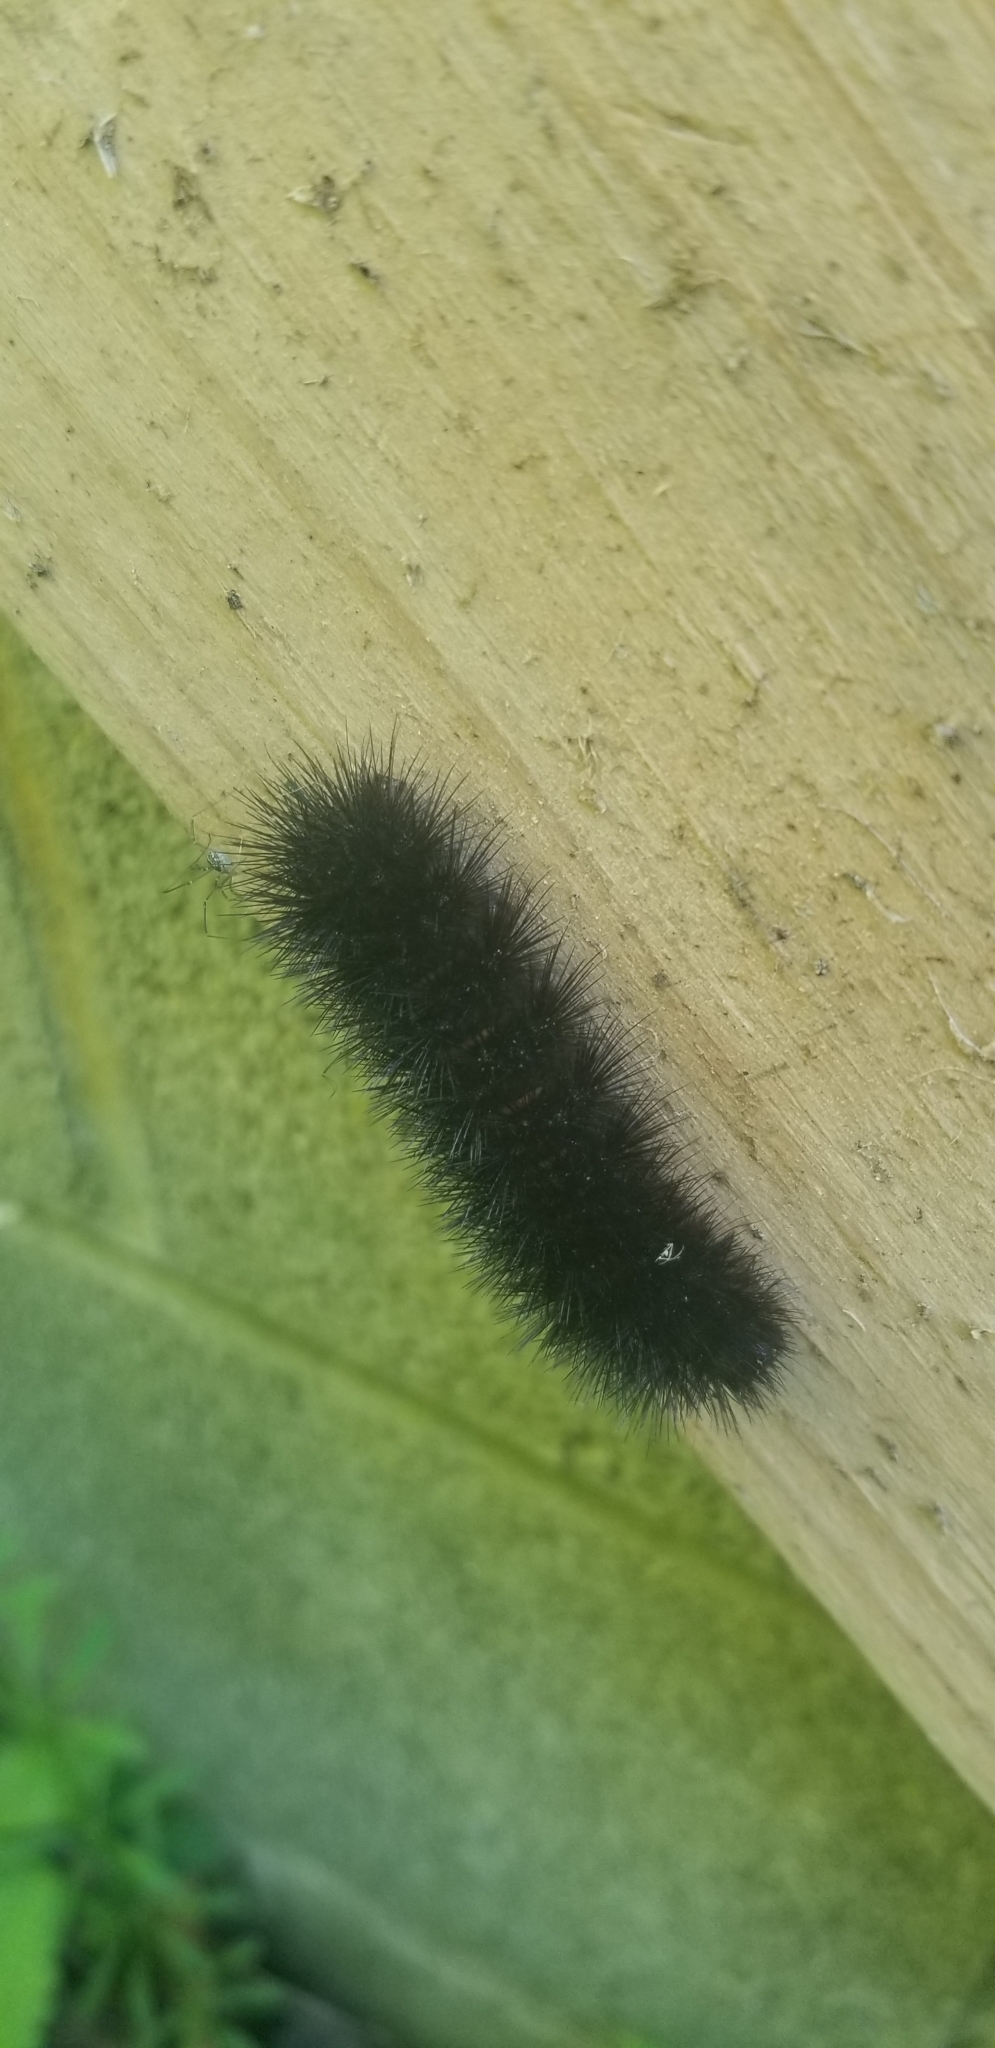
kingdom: Animalia
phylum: Arthropoda
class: Insecta
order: Lepidoptera
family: Erebidae
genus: Hypercompe
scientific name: Hypercompe scribonia
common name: Giant leopard moth
